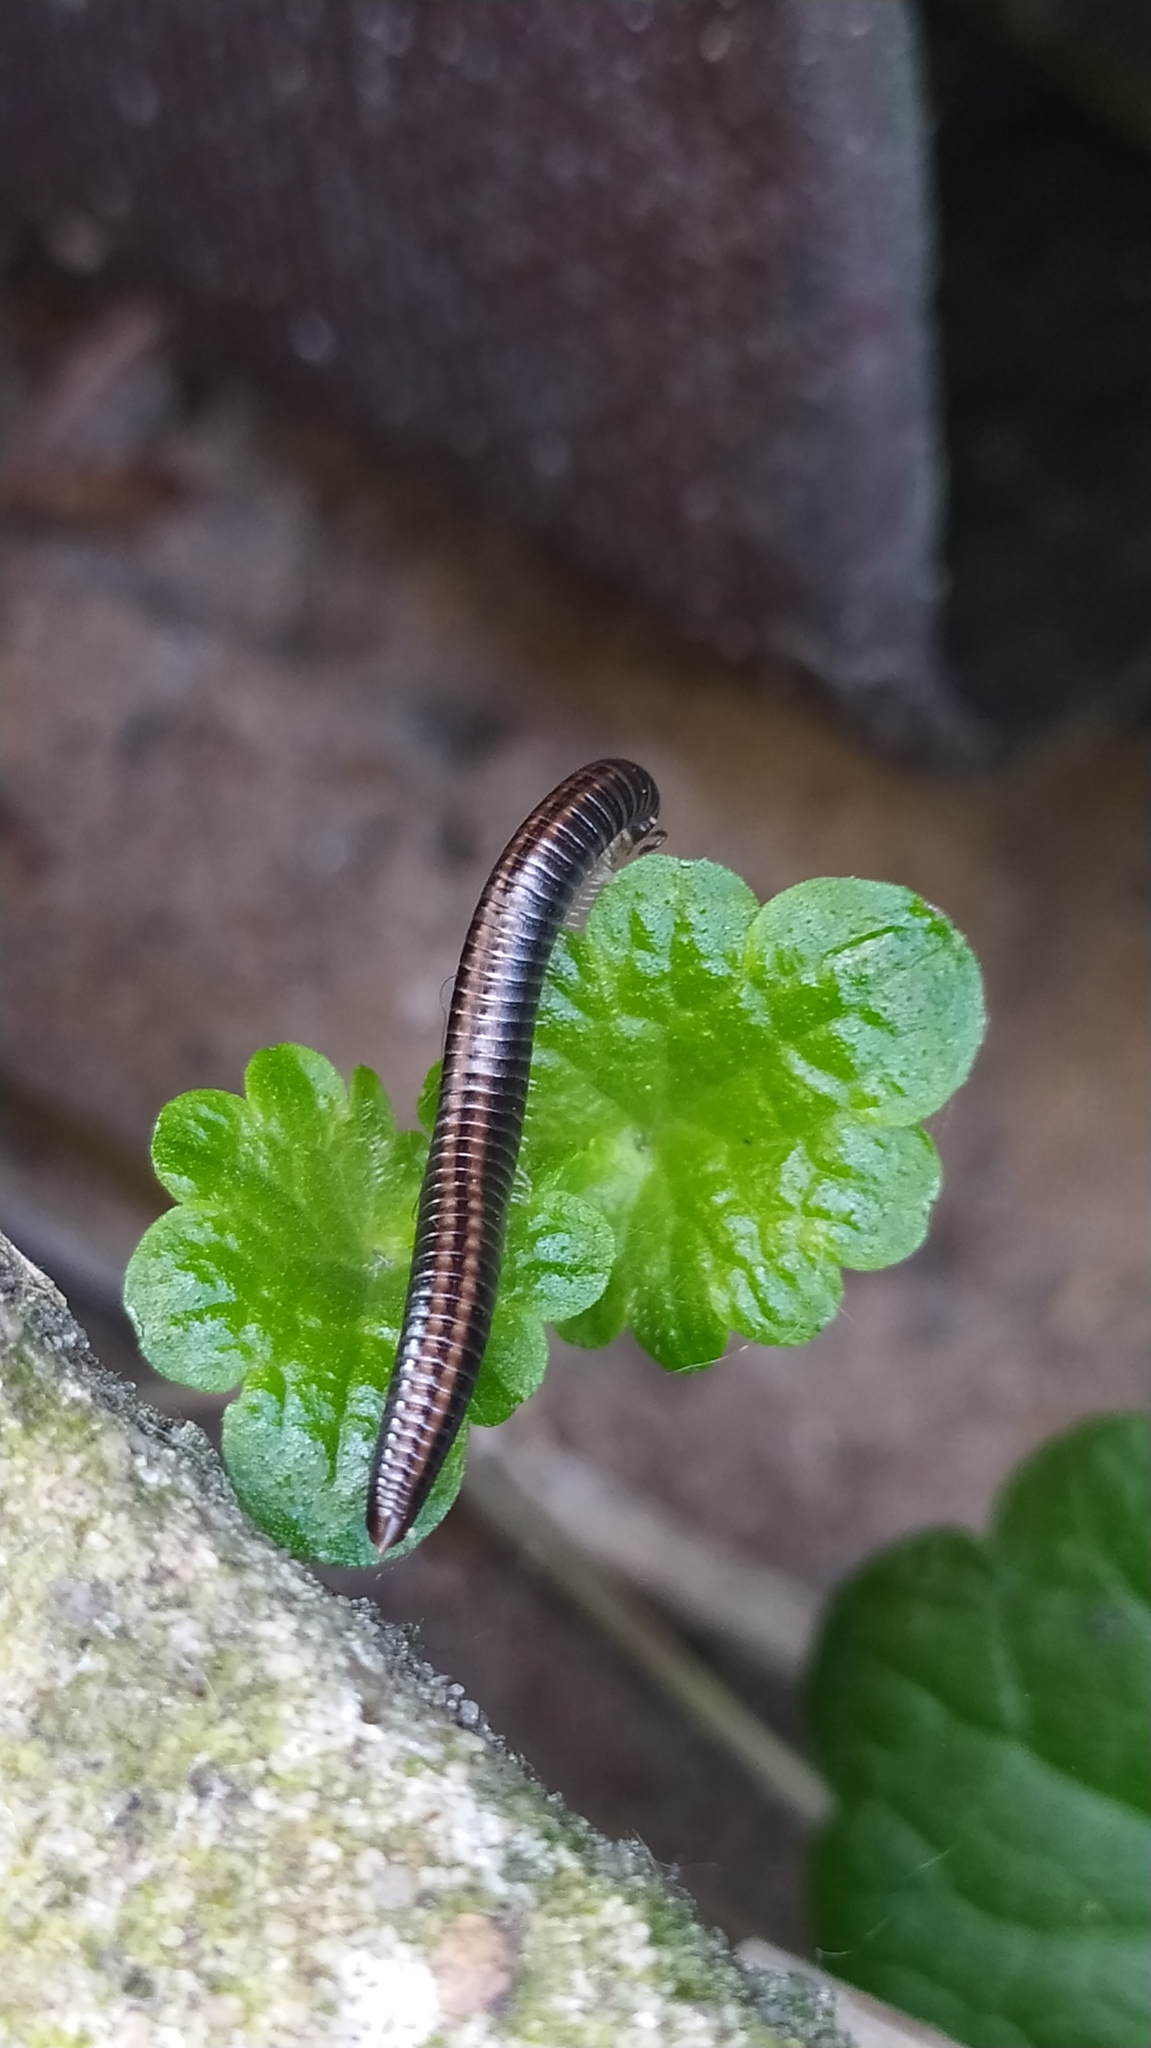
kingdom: Animalia
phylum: Arthropoda
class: Diplopoda
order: Julida
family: Julidae
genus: Ommatoiulus
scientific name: Ommatoiulus sabulosus
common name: Striped millipede
